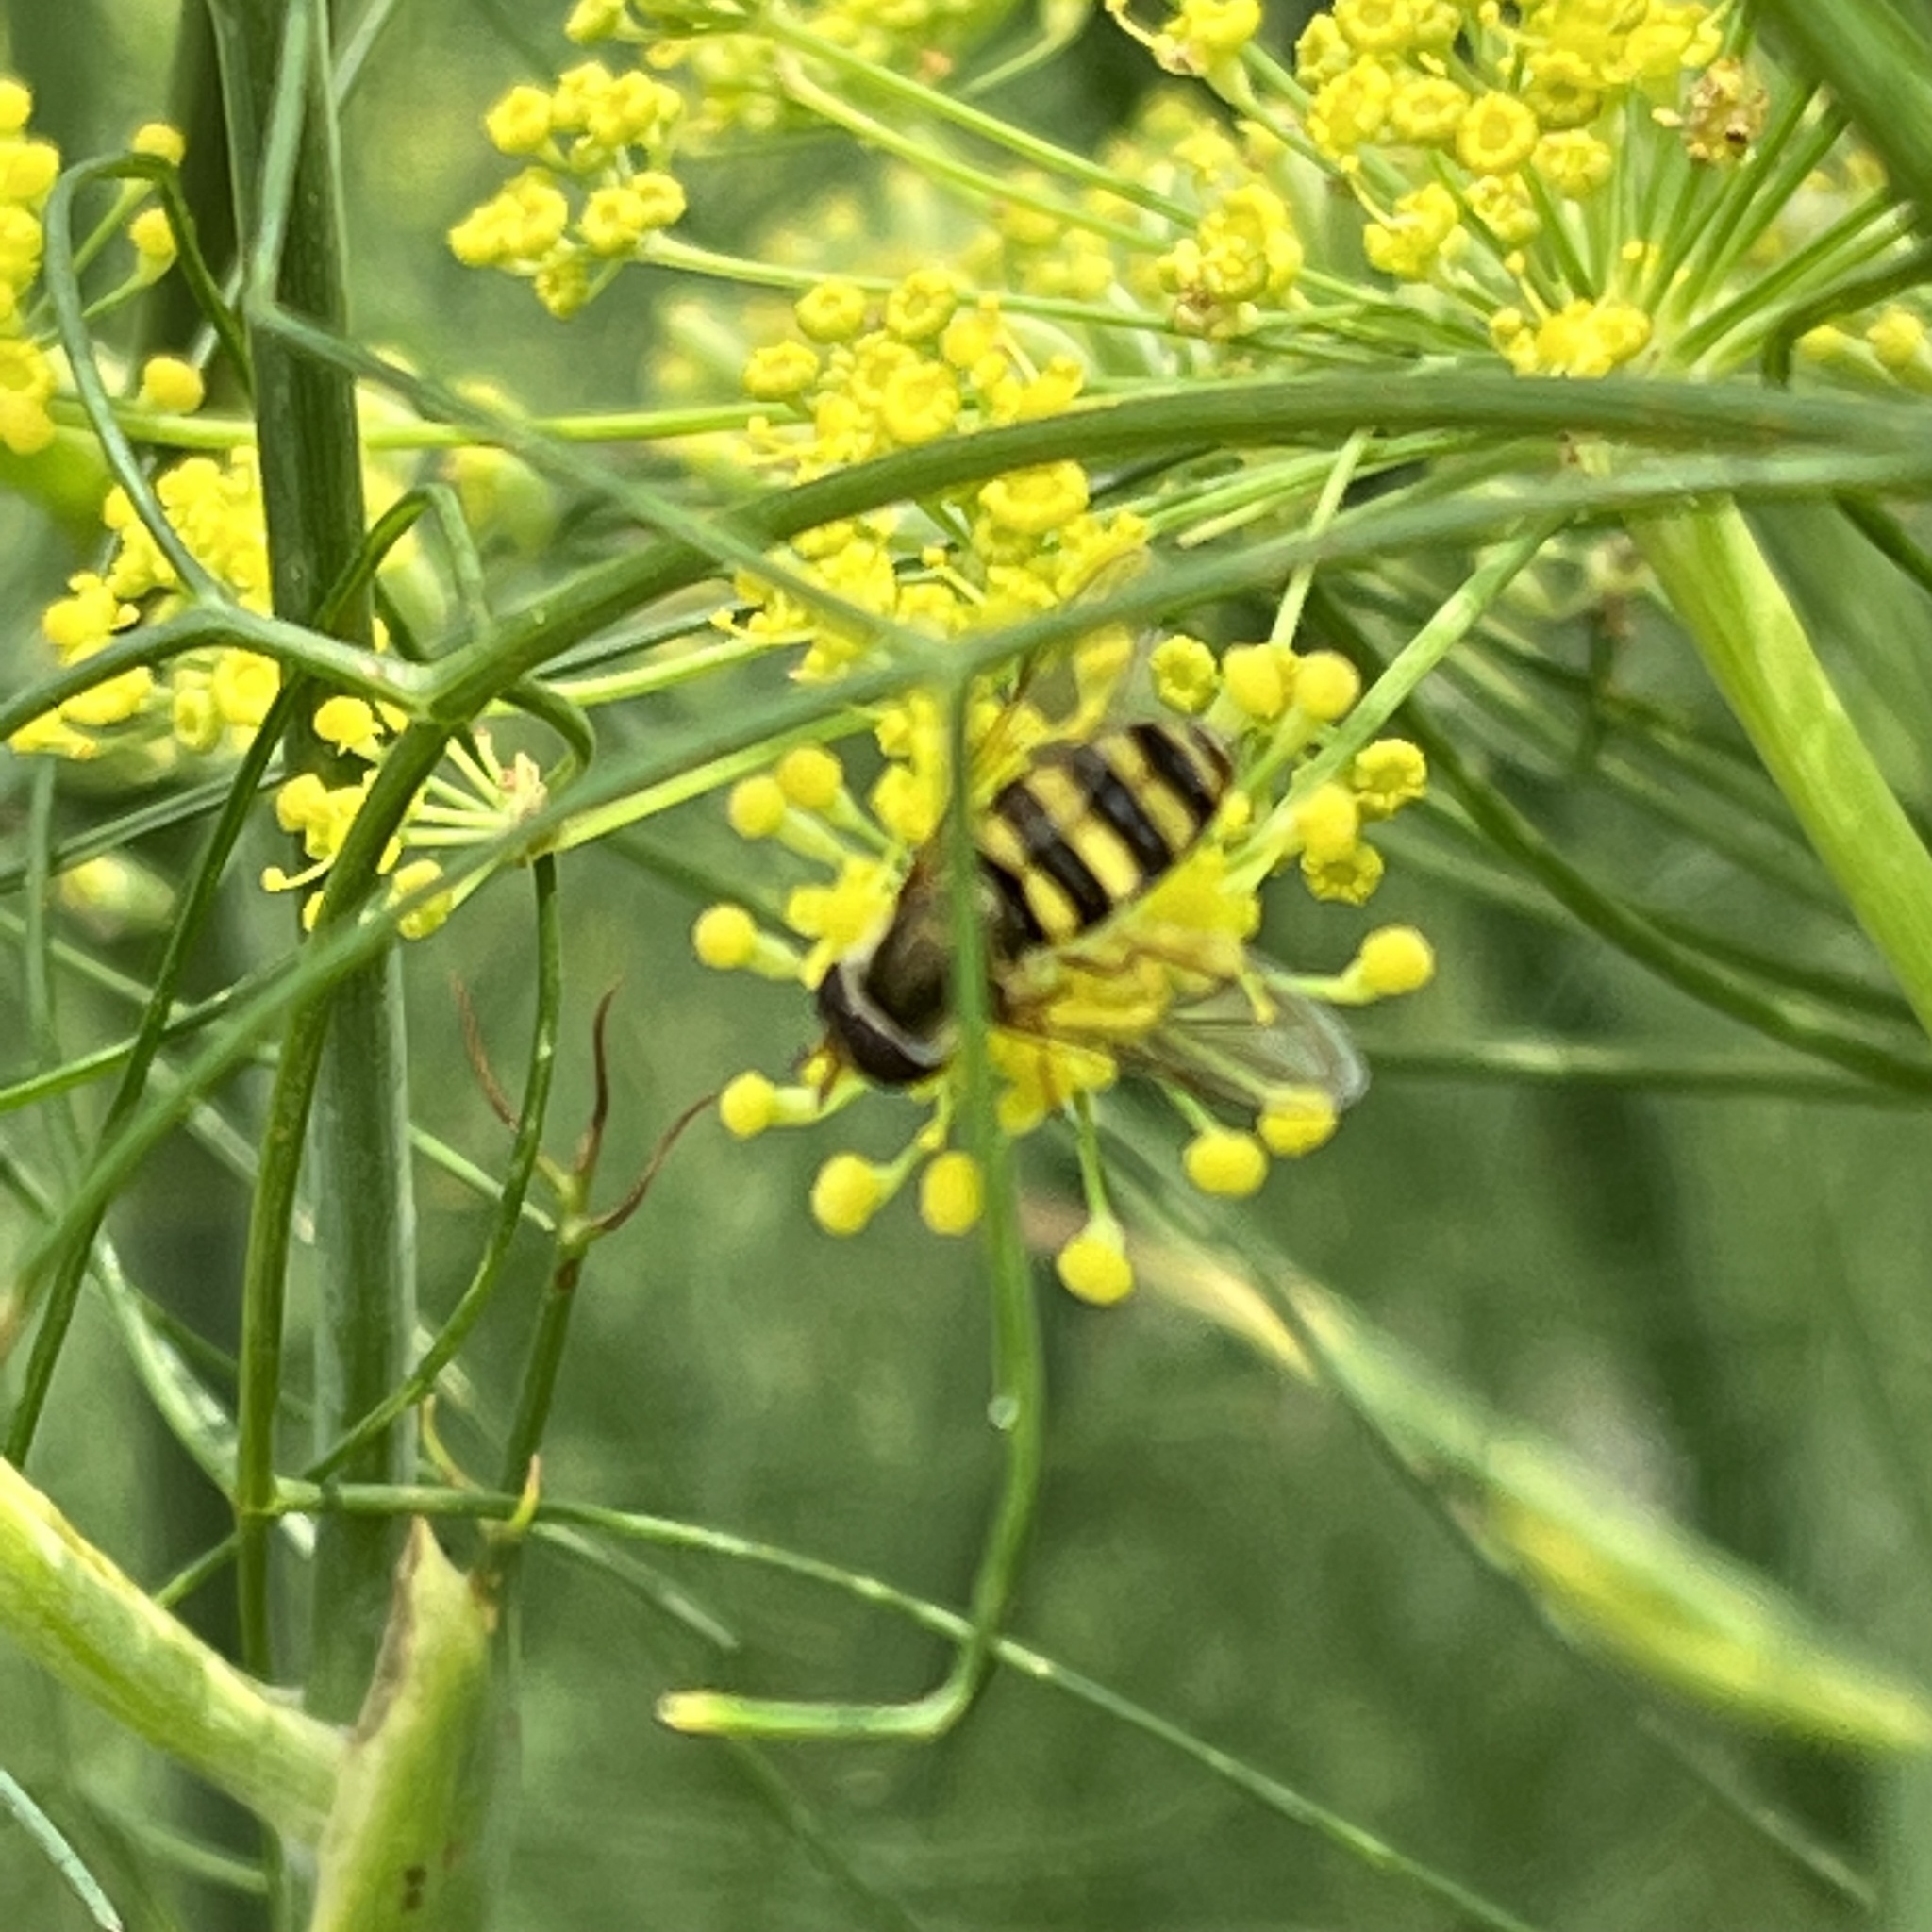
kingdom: Animalia
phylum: Arthropoda
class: Insecta
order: Diptera
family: Syrphidae
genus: Eupeodes
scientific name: Eupeodes
